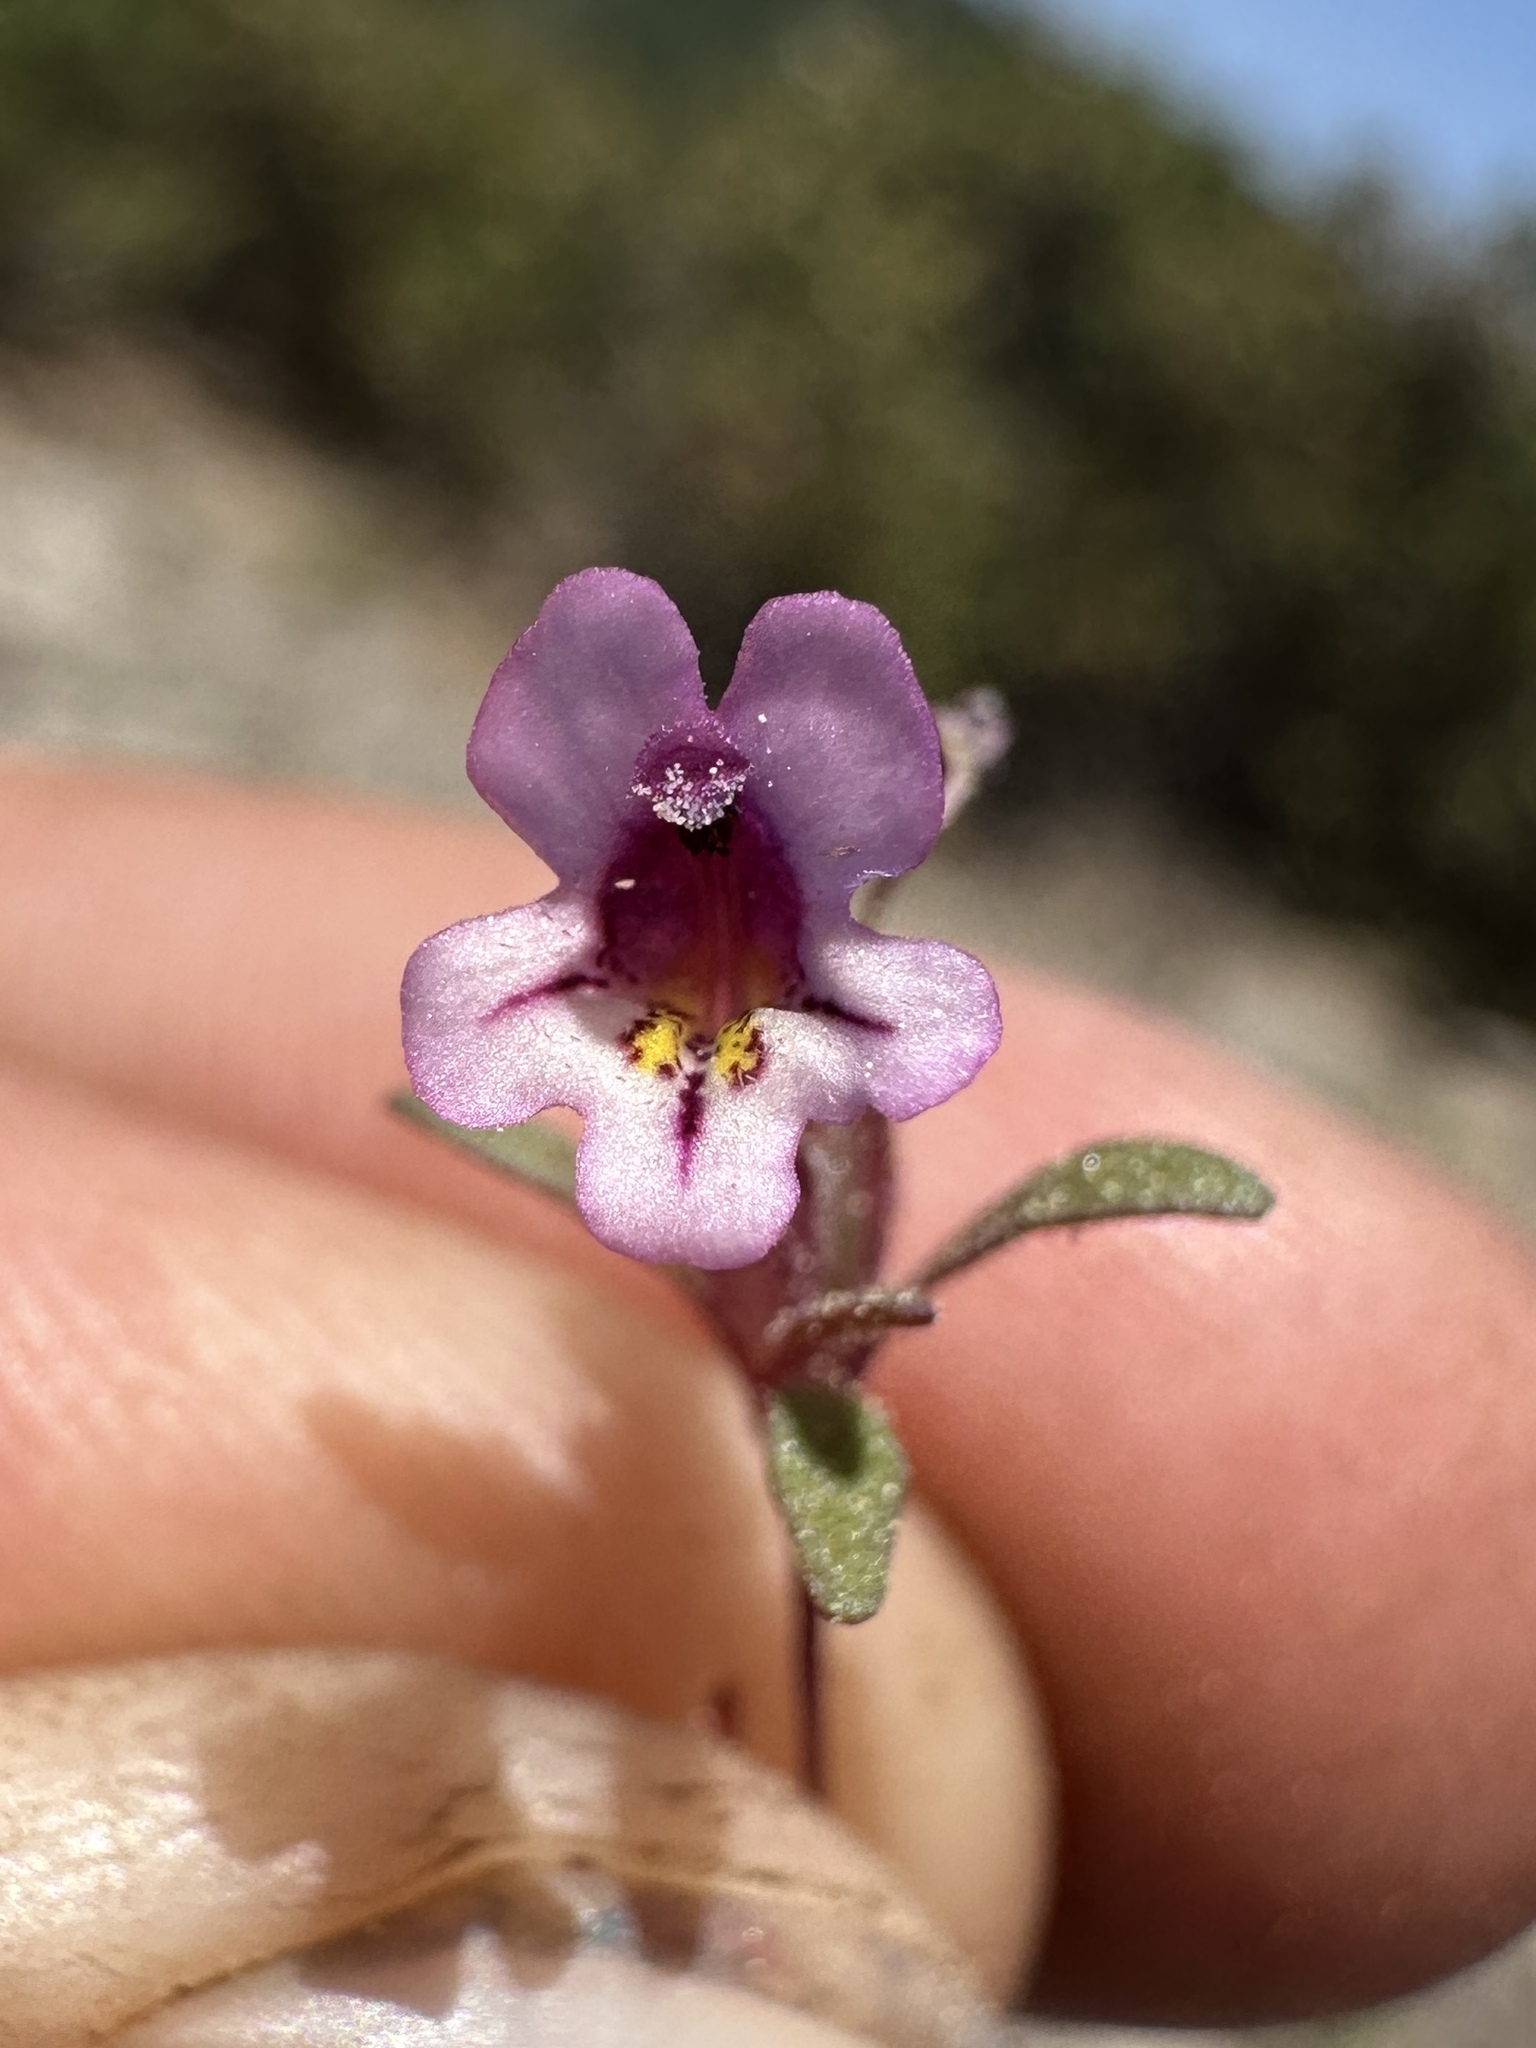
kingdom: Plantae
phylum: Tracheophyta
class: Magnoliopsida
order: Lamiales
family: Phrymaceae
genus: Diplacus
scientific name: Diplacus jepsonii
